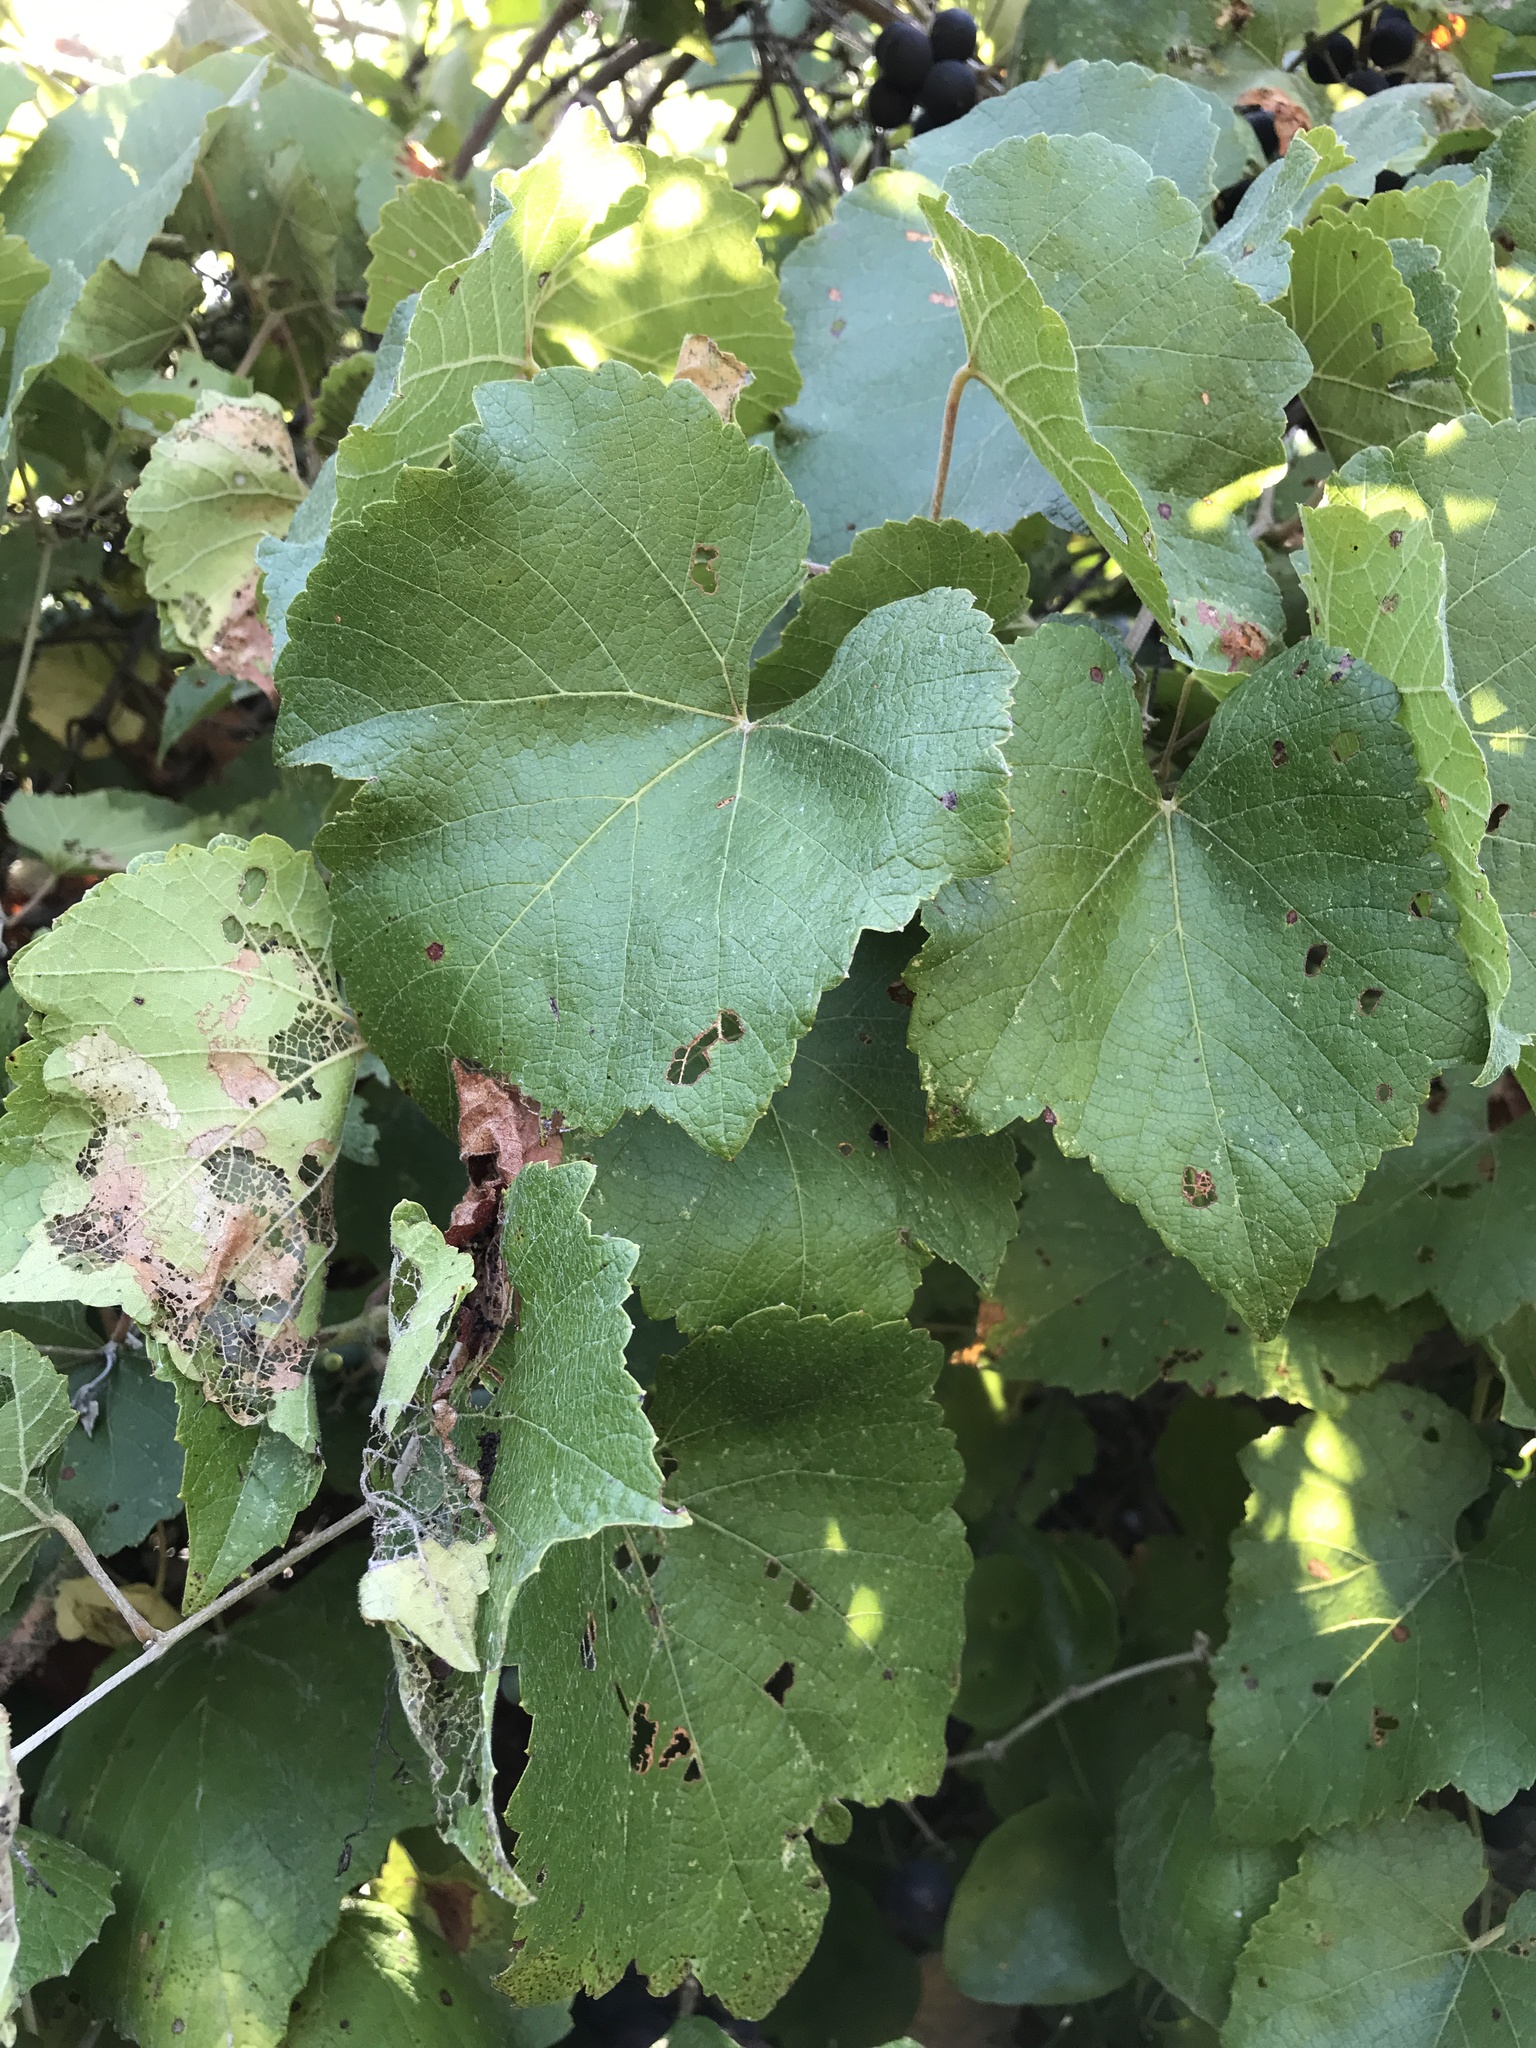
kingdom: Plantae
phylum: Tracheophyta
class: Magnoliopsida
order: Vitales
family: Vitaceae
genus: Vitis
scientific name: Vitis cinerea
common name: Ashy grape
